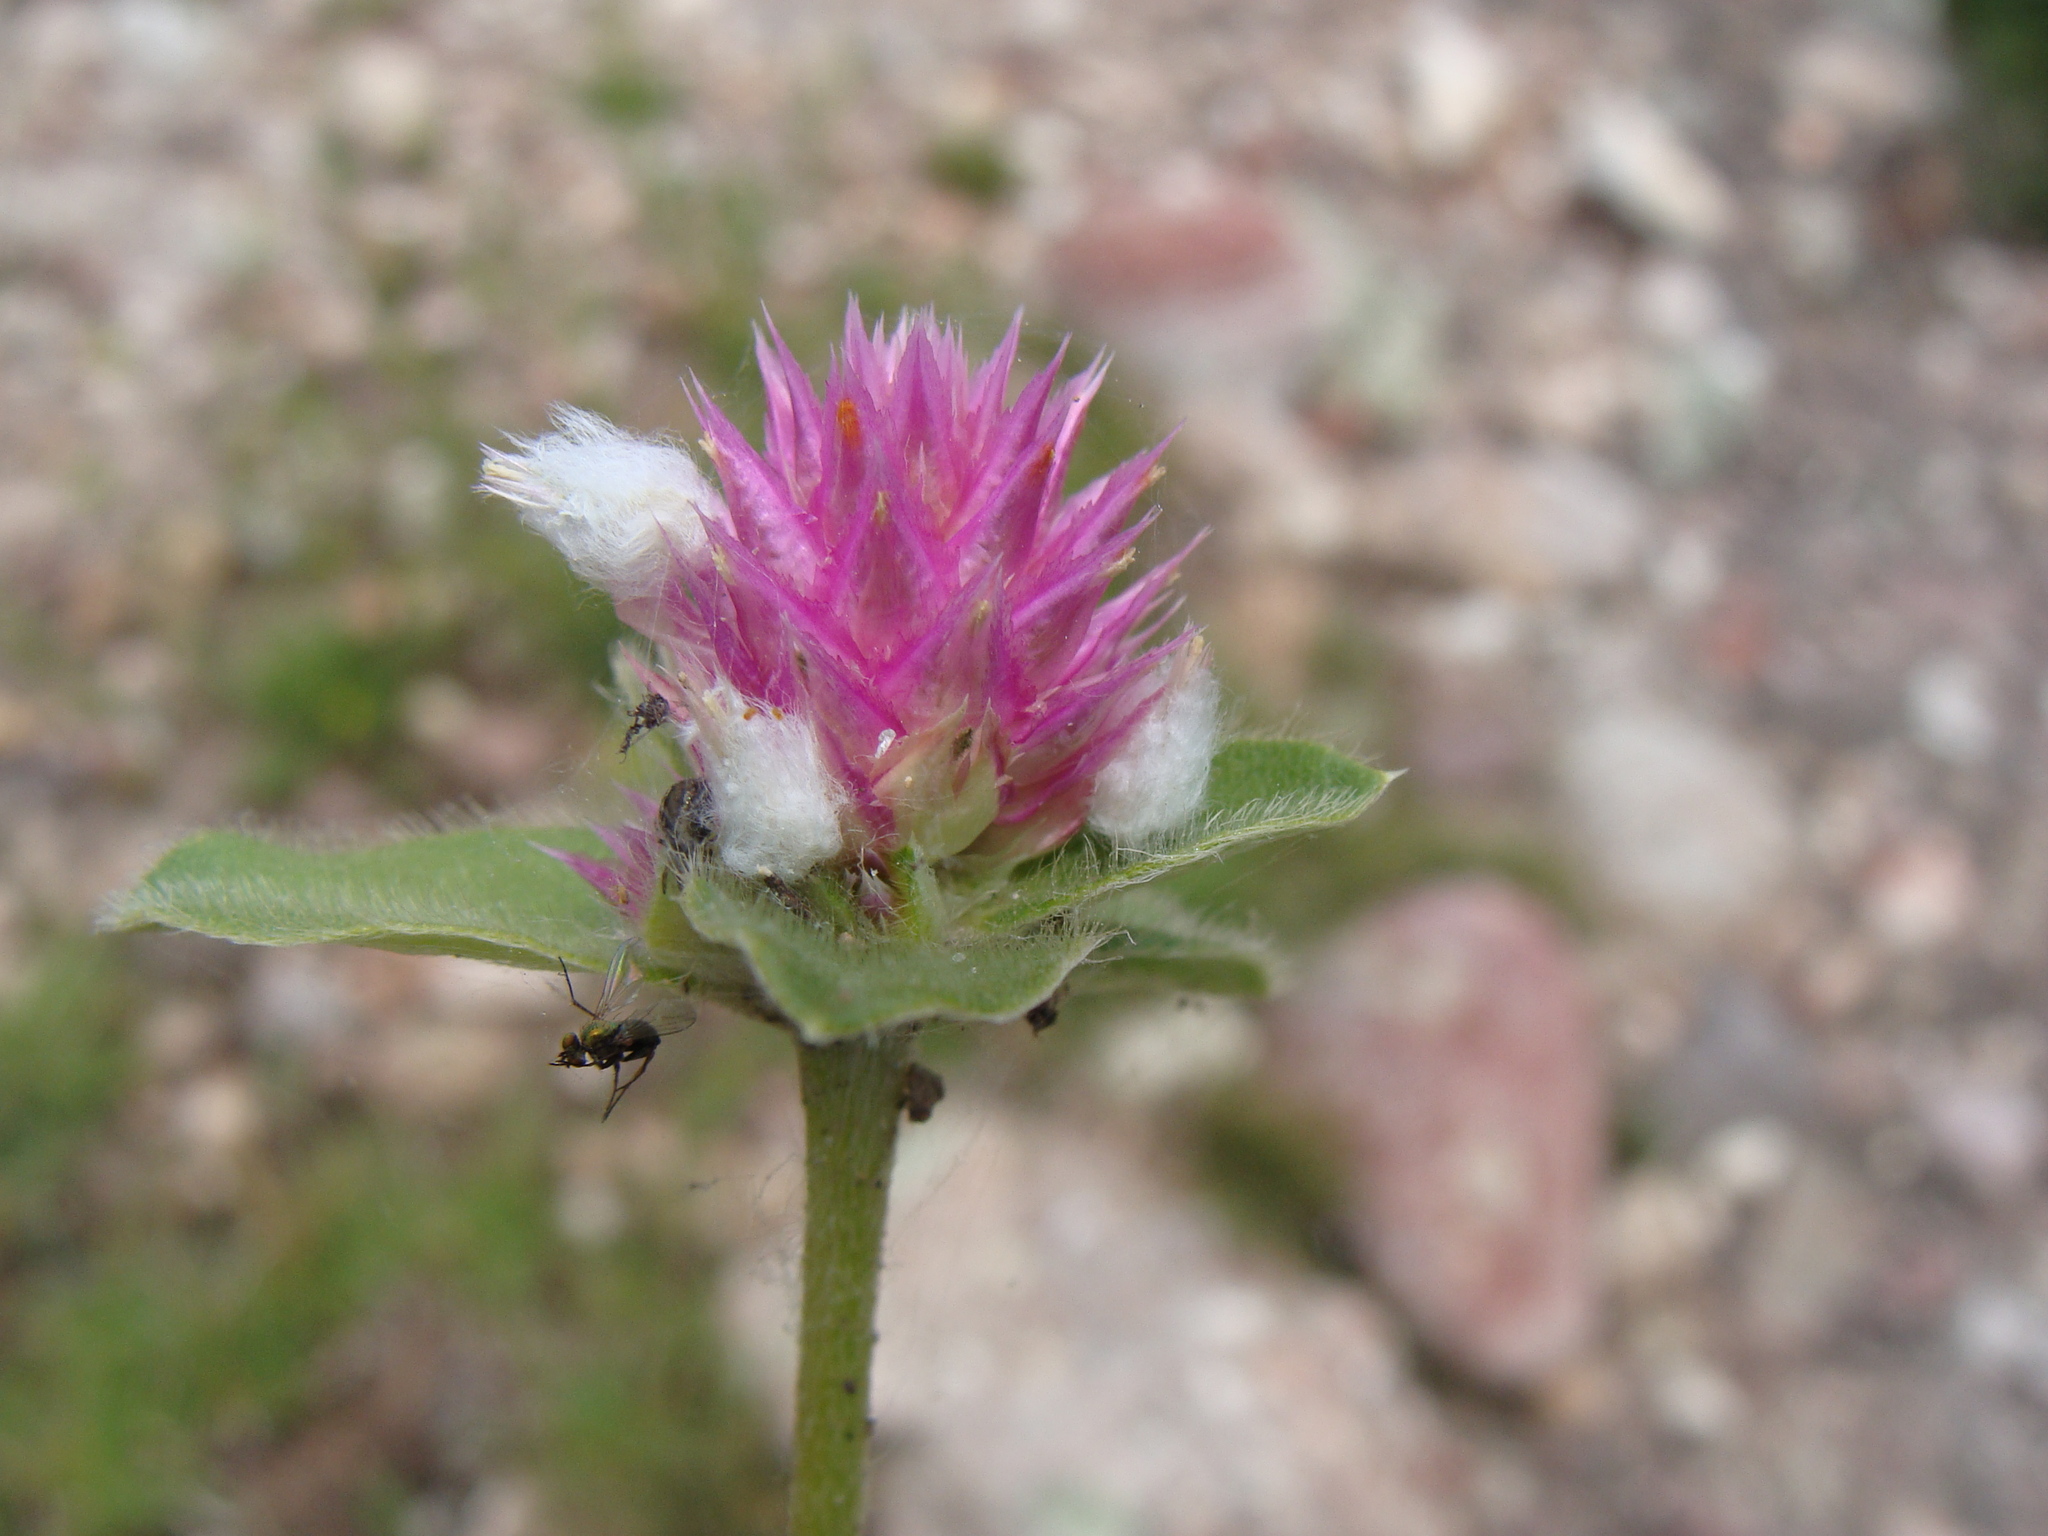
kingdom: Plantae
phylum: Tracheophyta
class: Magnoliopsida
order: Caryophyllales
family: Amaranthaceae
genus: Gomphrena
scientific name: Gomphrena serrata
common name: Arrasa con todo
